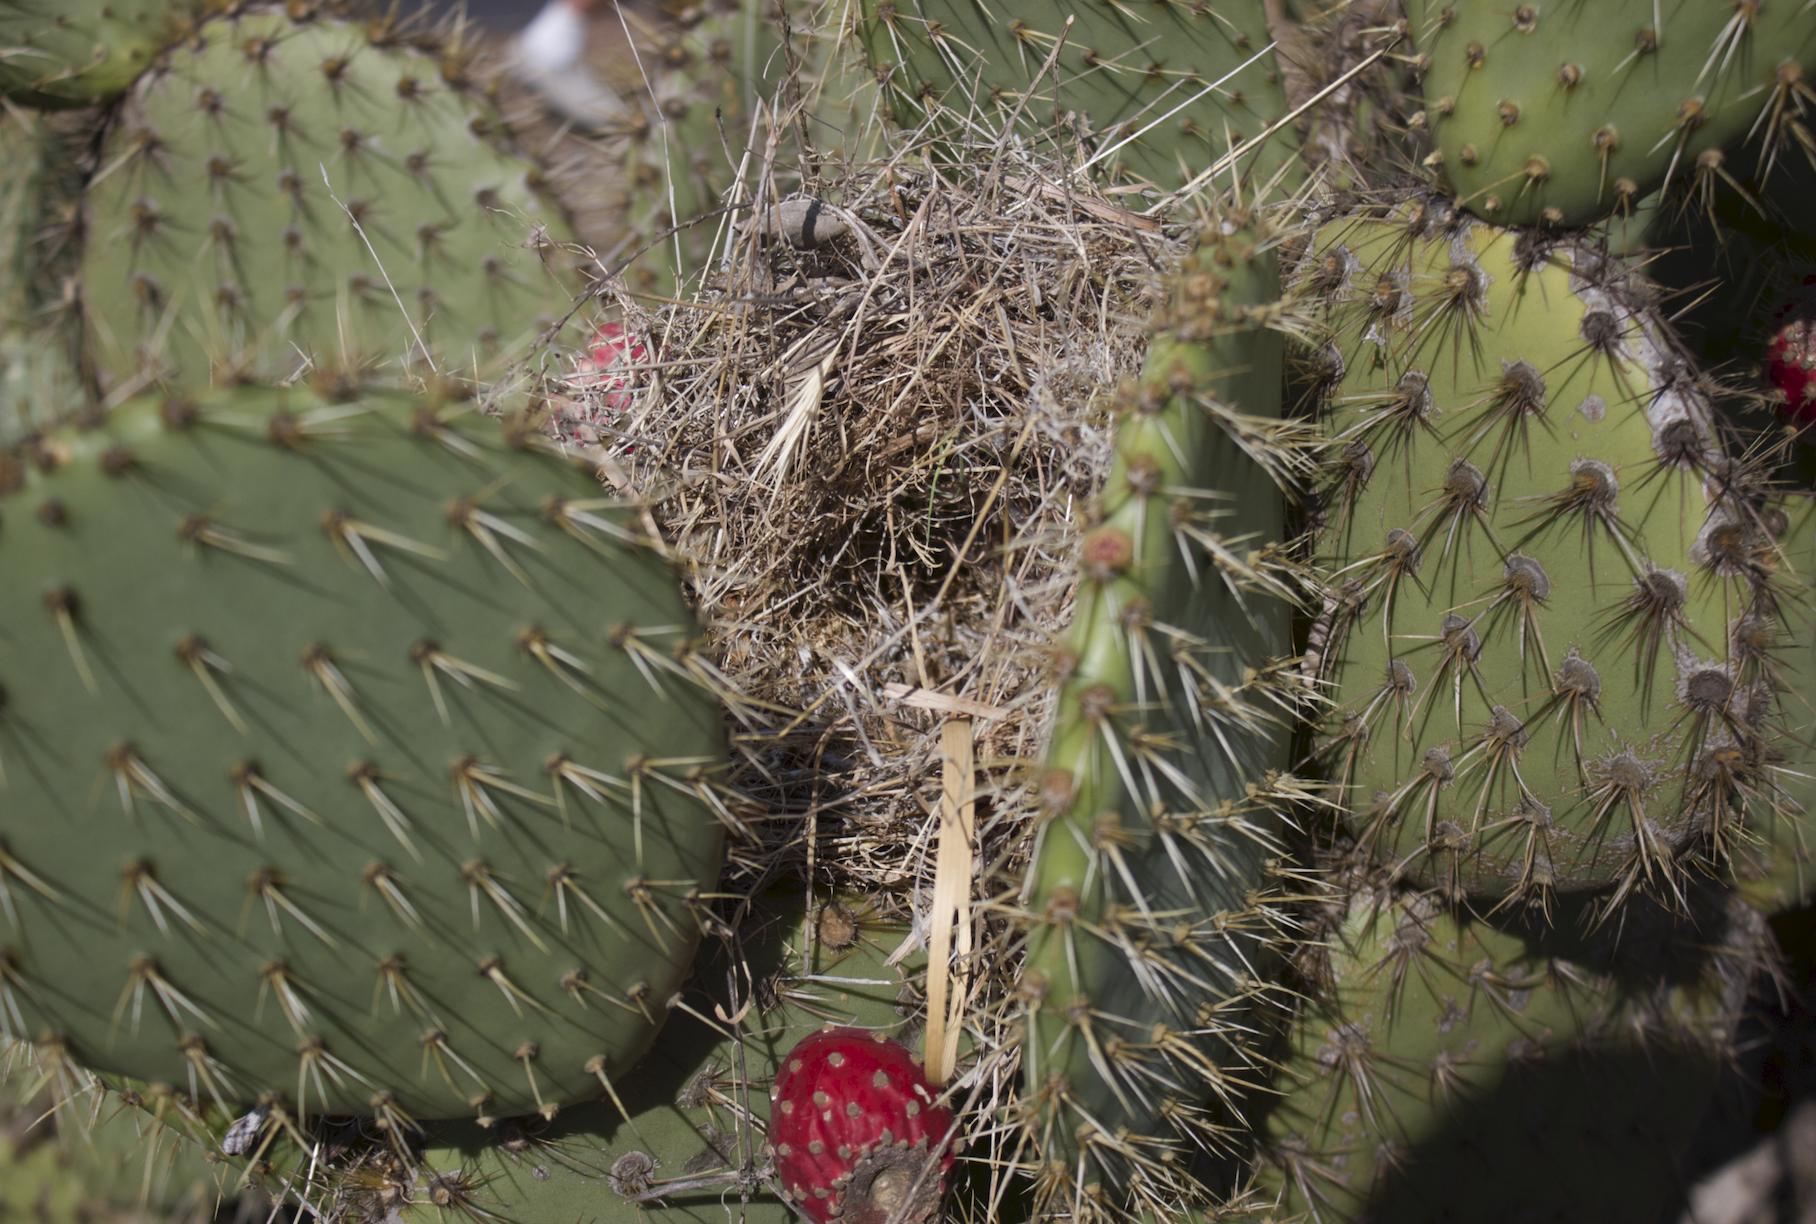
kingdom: Animalia
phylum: Chordata
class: Aves
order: Passeriformes
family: Troglodytidae
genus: Campylorhynchus
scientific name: Campylorhynchus brunneicapillus
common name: Cactus wren
